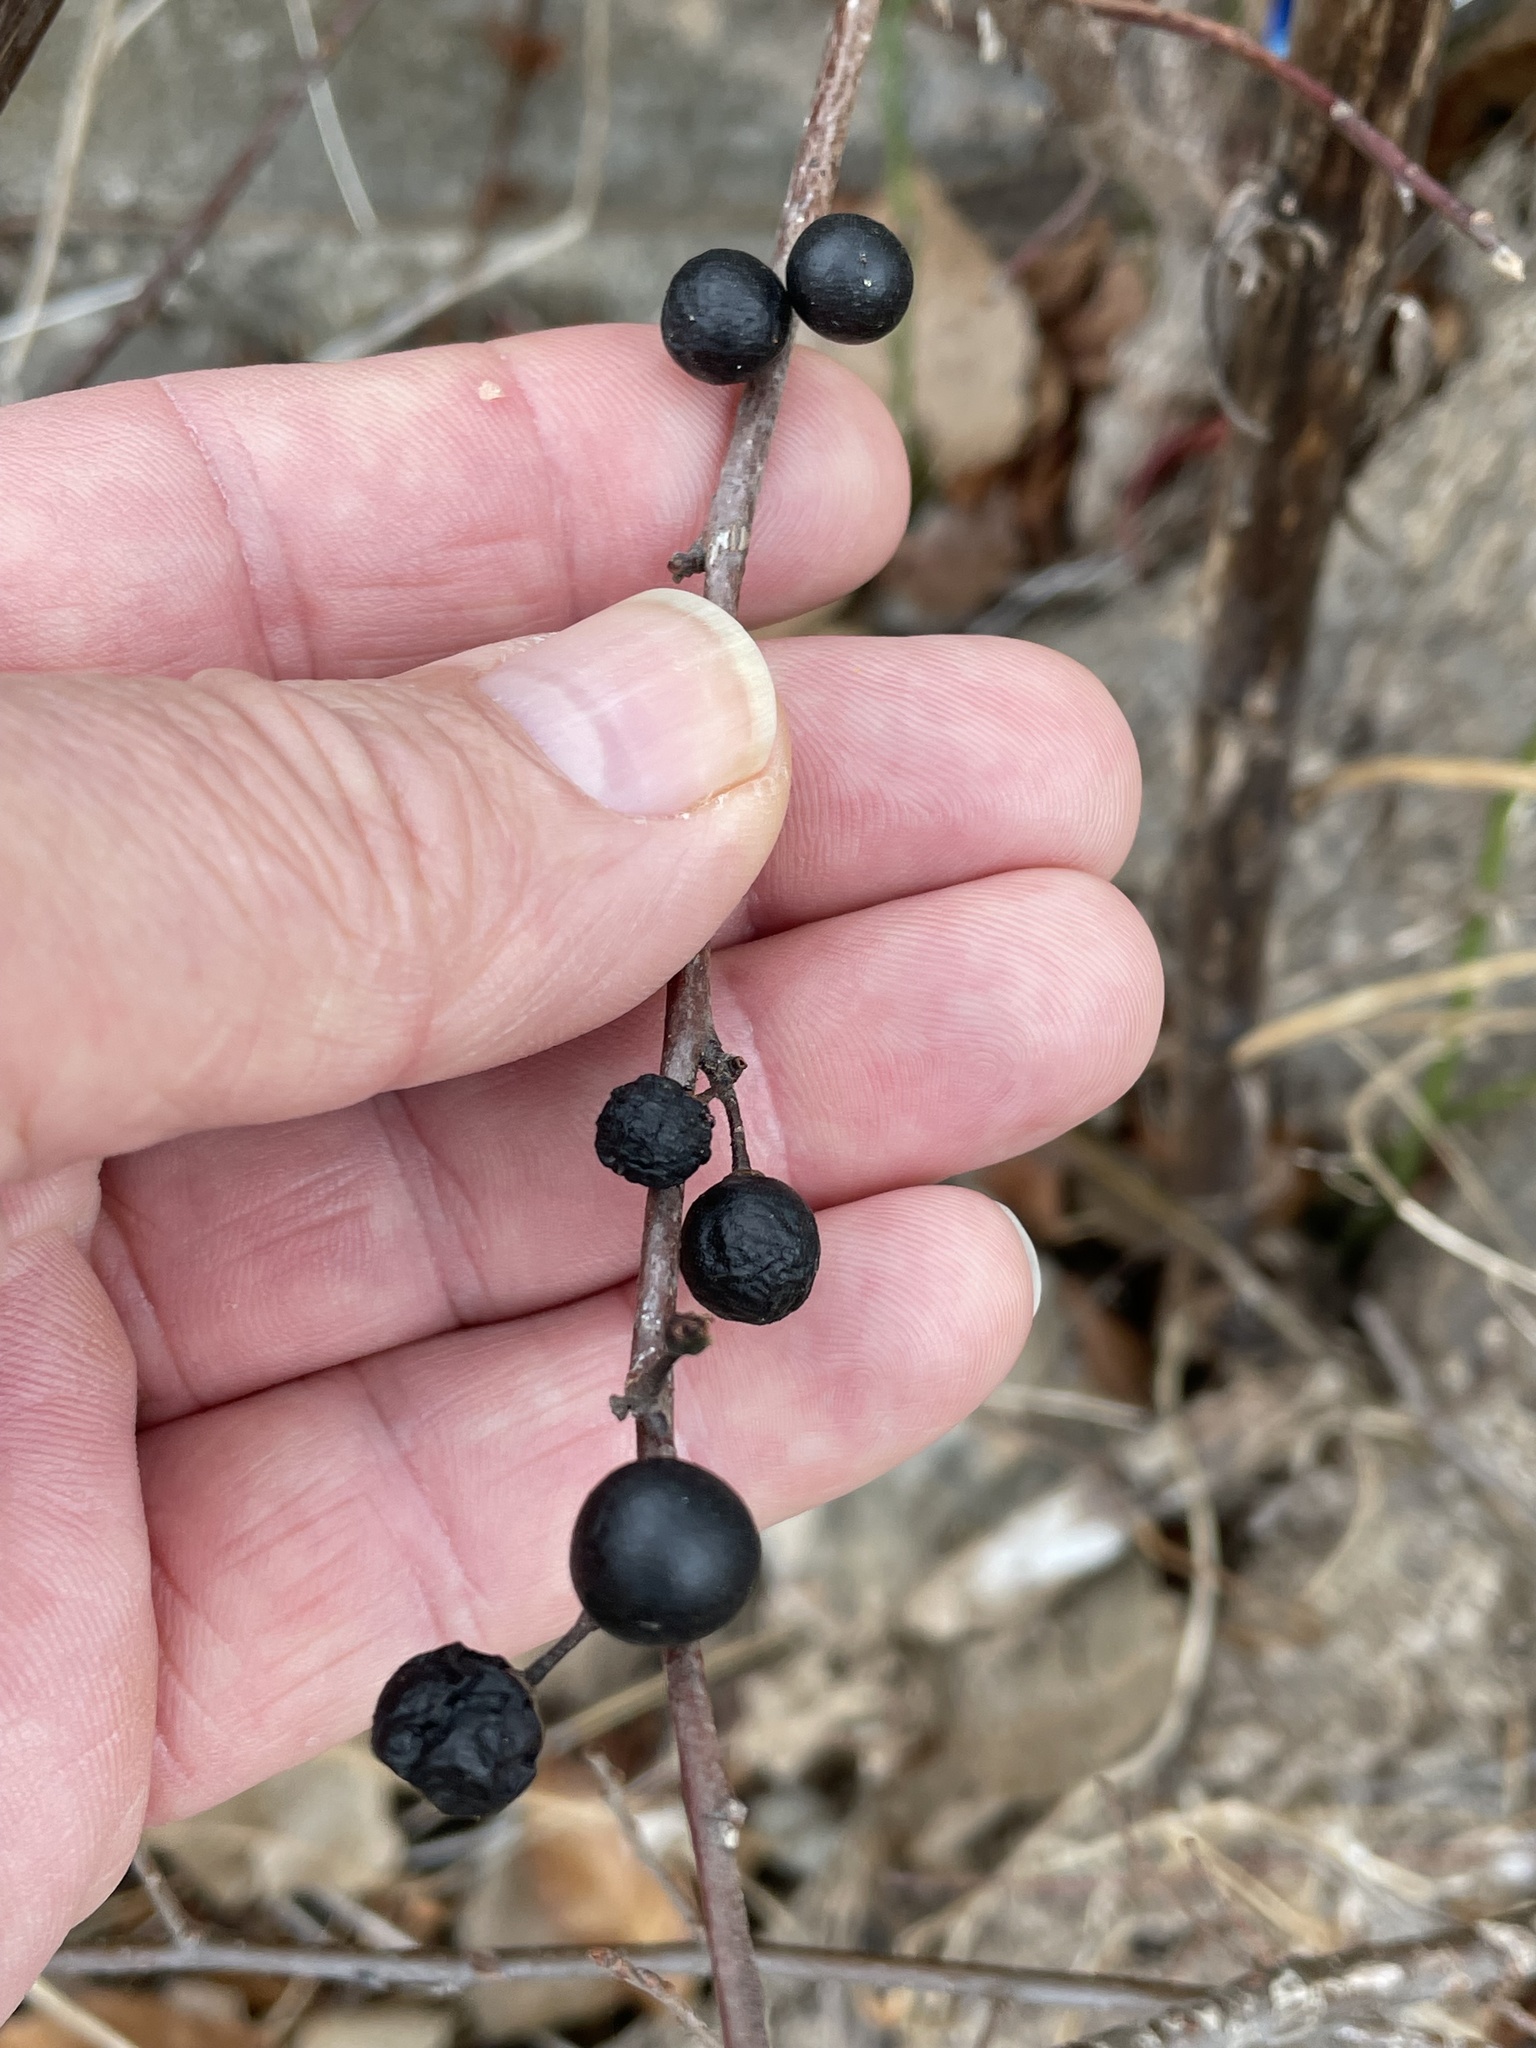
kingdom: Plantae
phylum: Tracheophyta
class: Magnoliopsida
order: Rosales
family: Rhamnaceae
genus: Frangula
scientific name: Frangula caroliniana
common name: Carolina buckthorn
